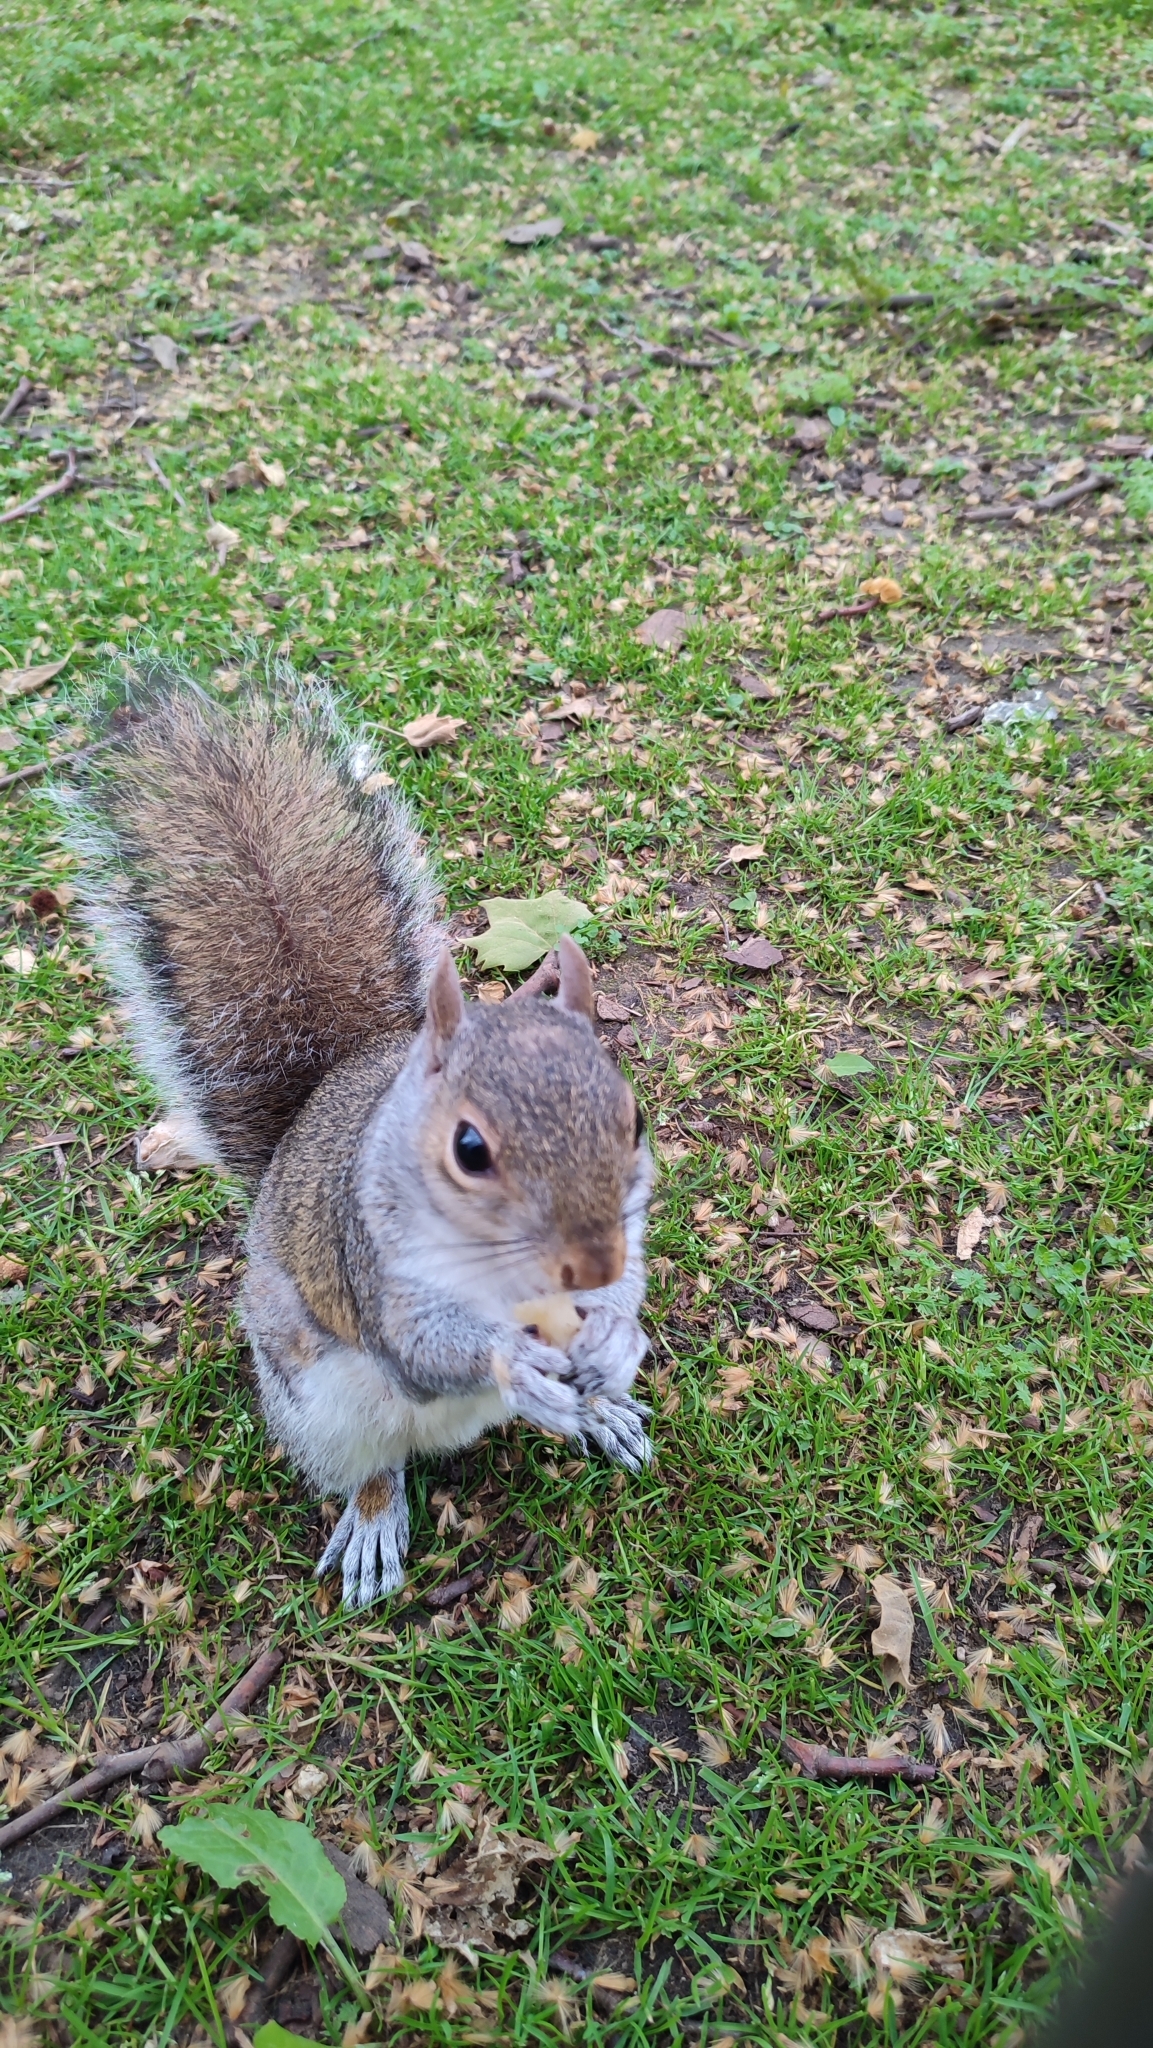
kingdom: Animalia
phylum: Chordata
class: Mammalia
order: Rodentia
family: Sciuridae
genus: Sciurus
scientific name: Sciurus carolinensis
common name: Eastern gray squirrel
